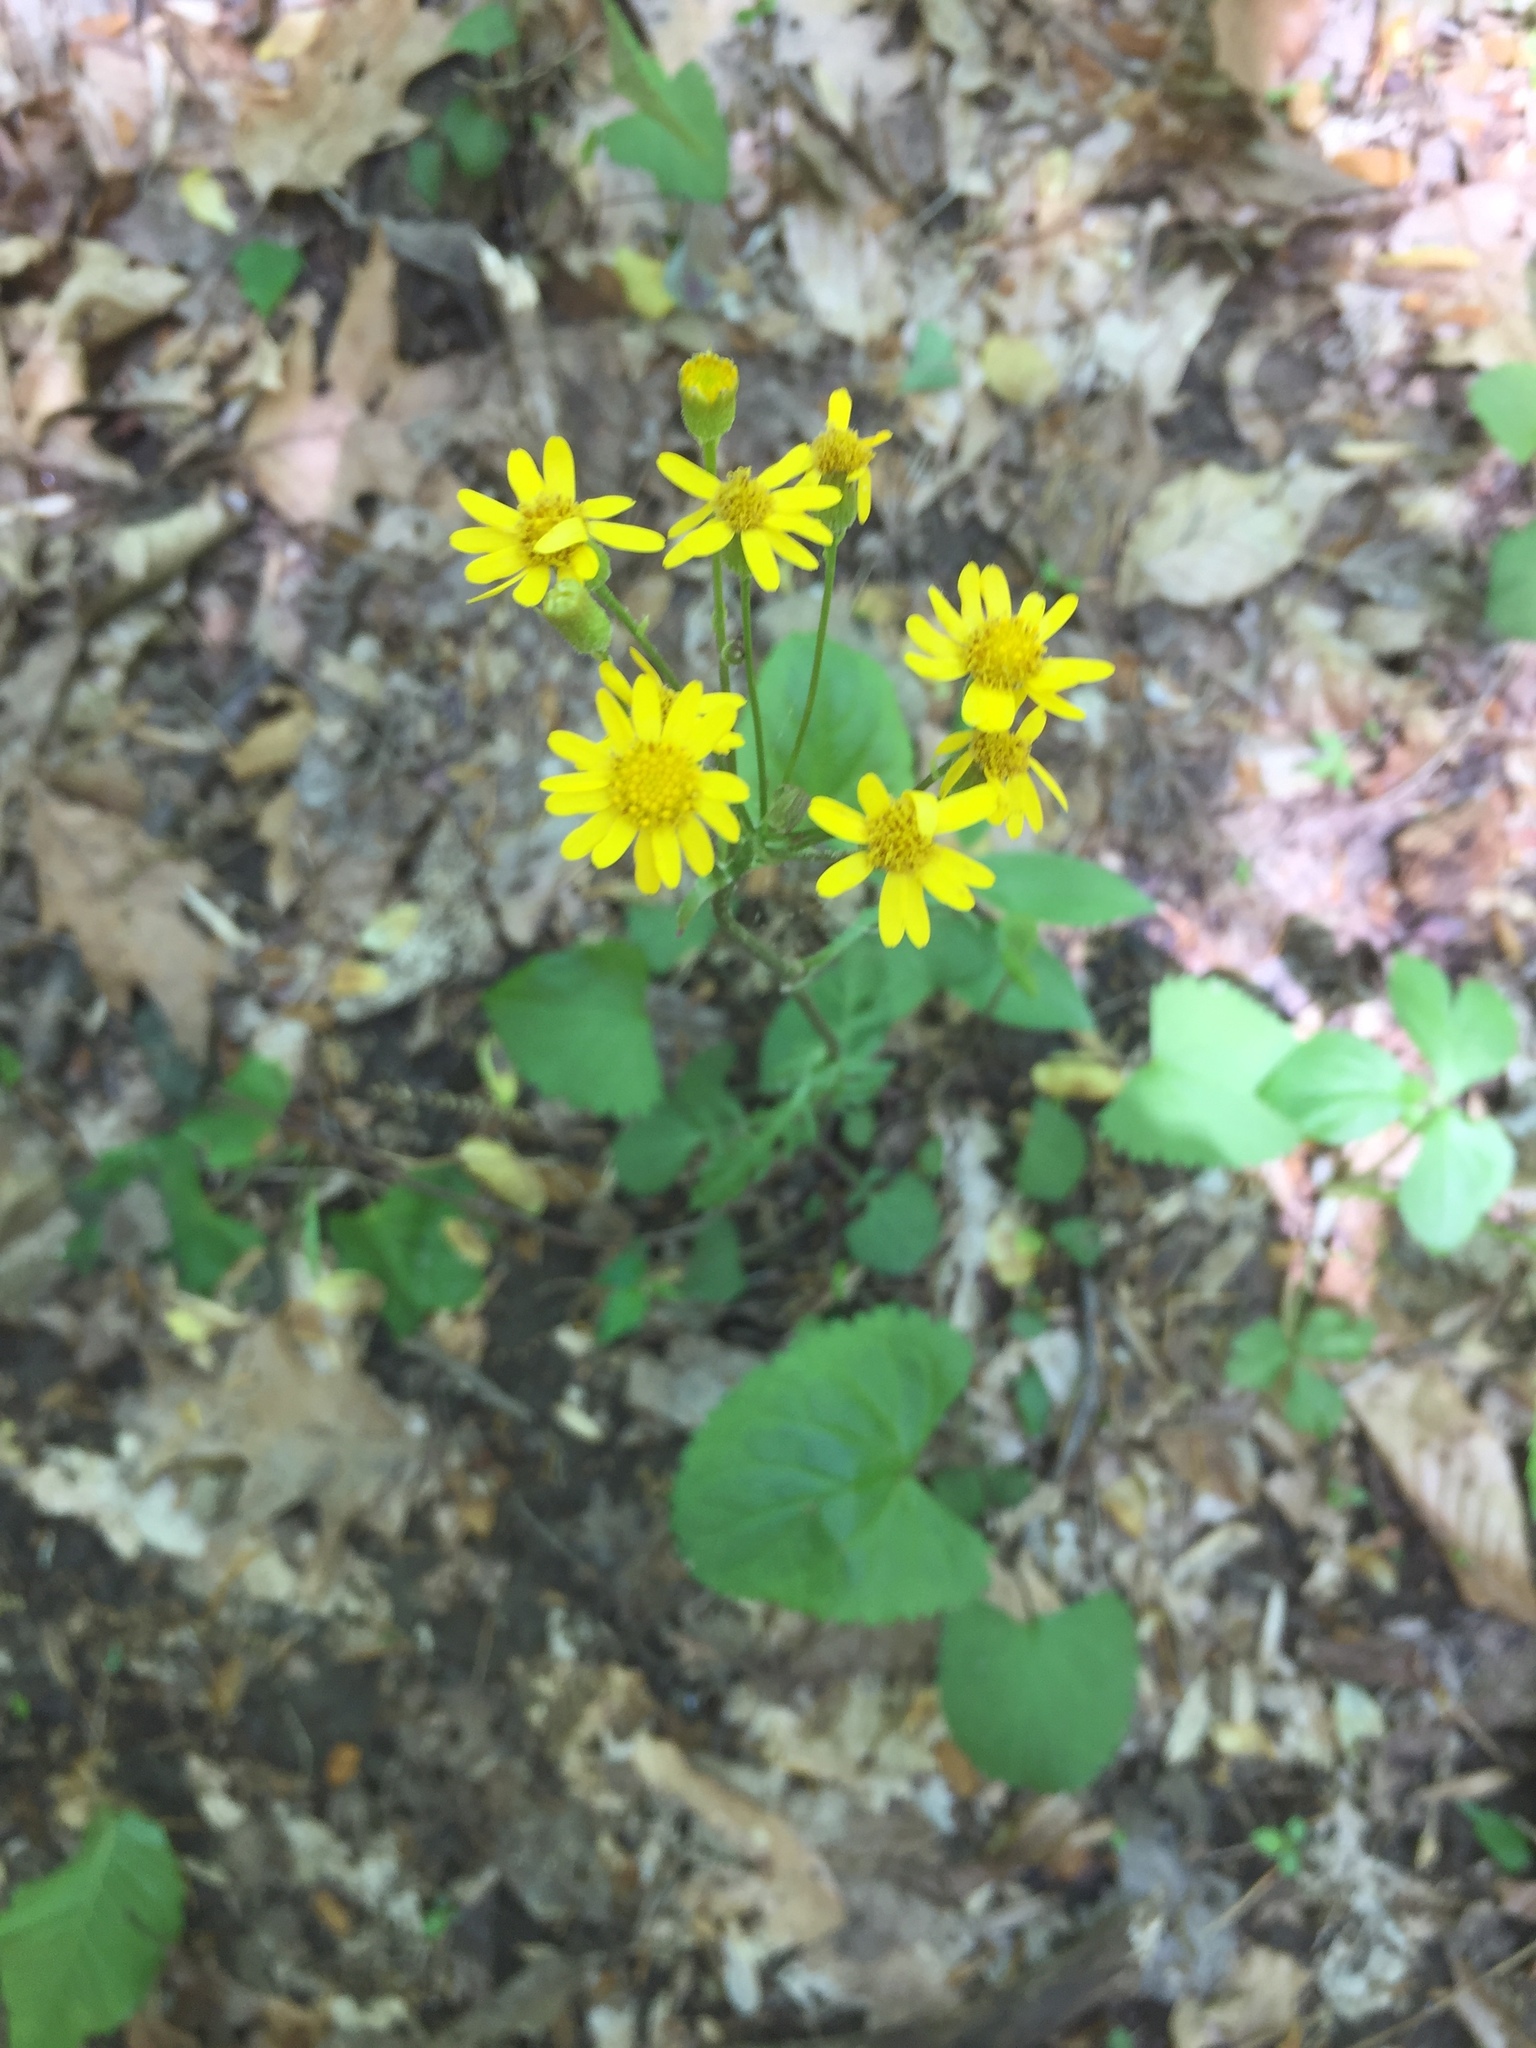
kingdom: Plantae
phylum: Tracheophyta
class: Magnoliopsida
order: Asterales
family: Asteraceae
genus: Packera
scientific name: Packera aurea
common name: Golden groundsel
